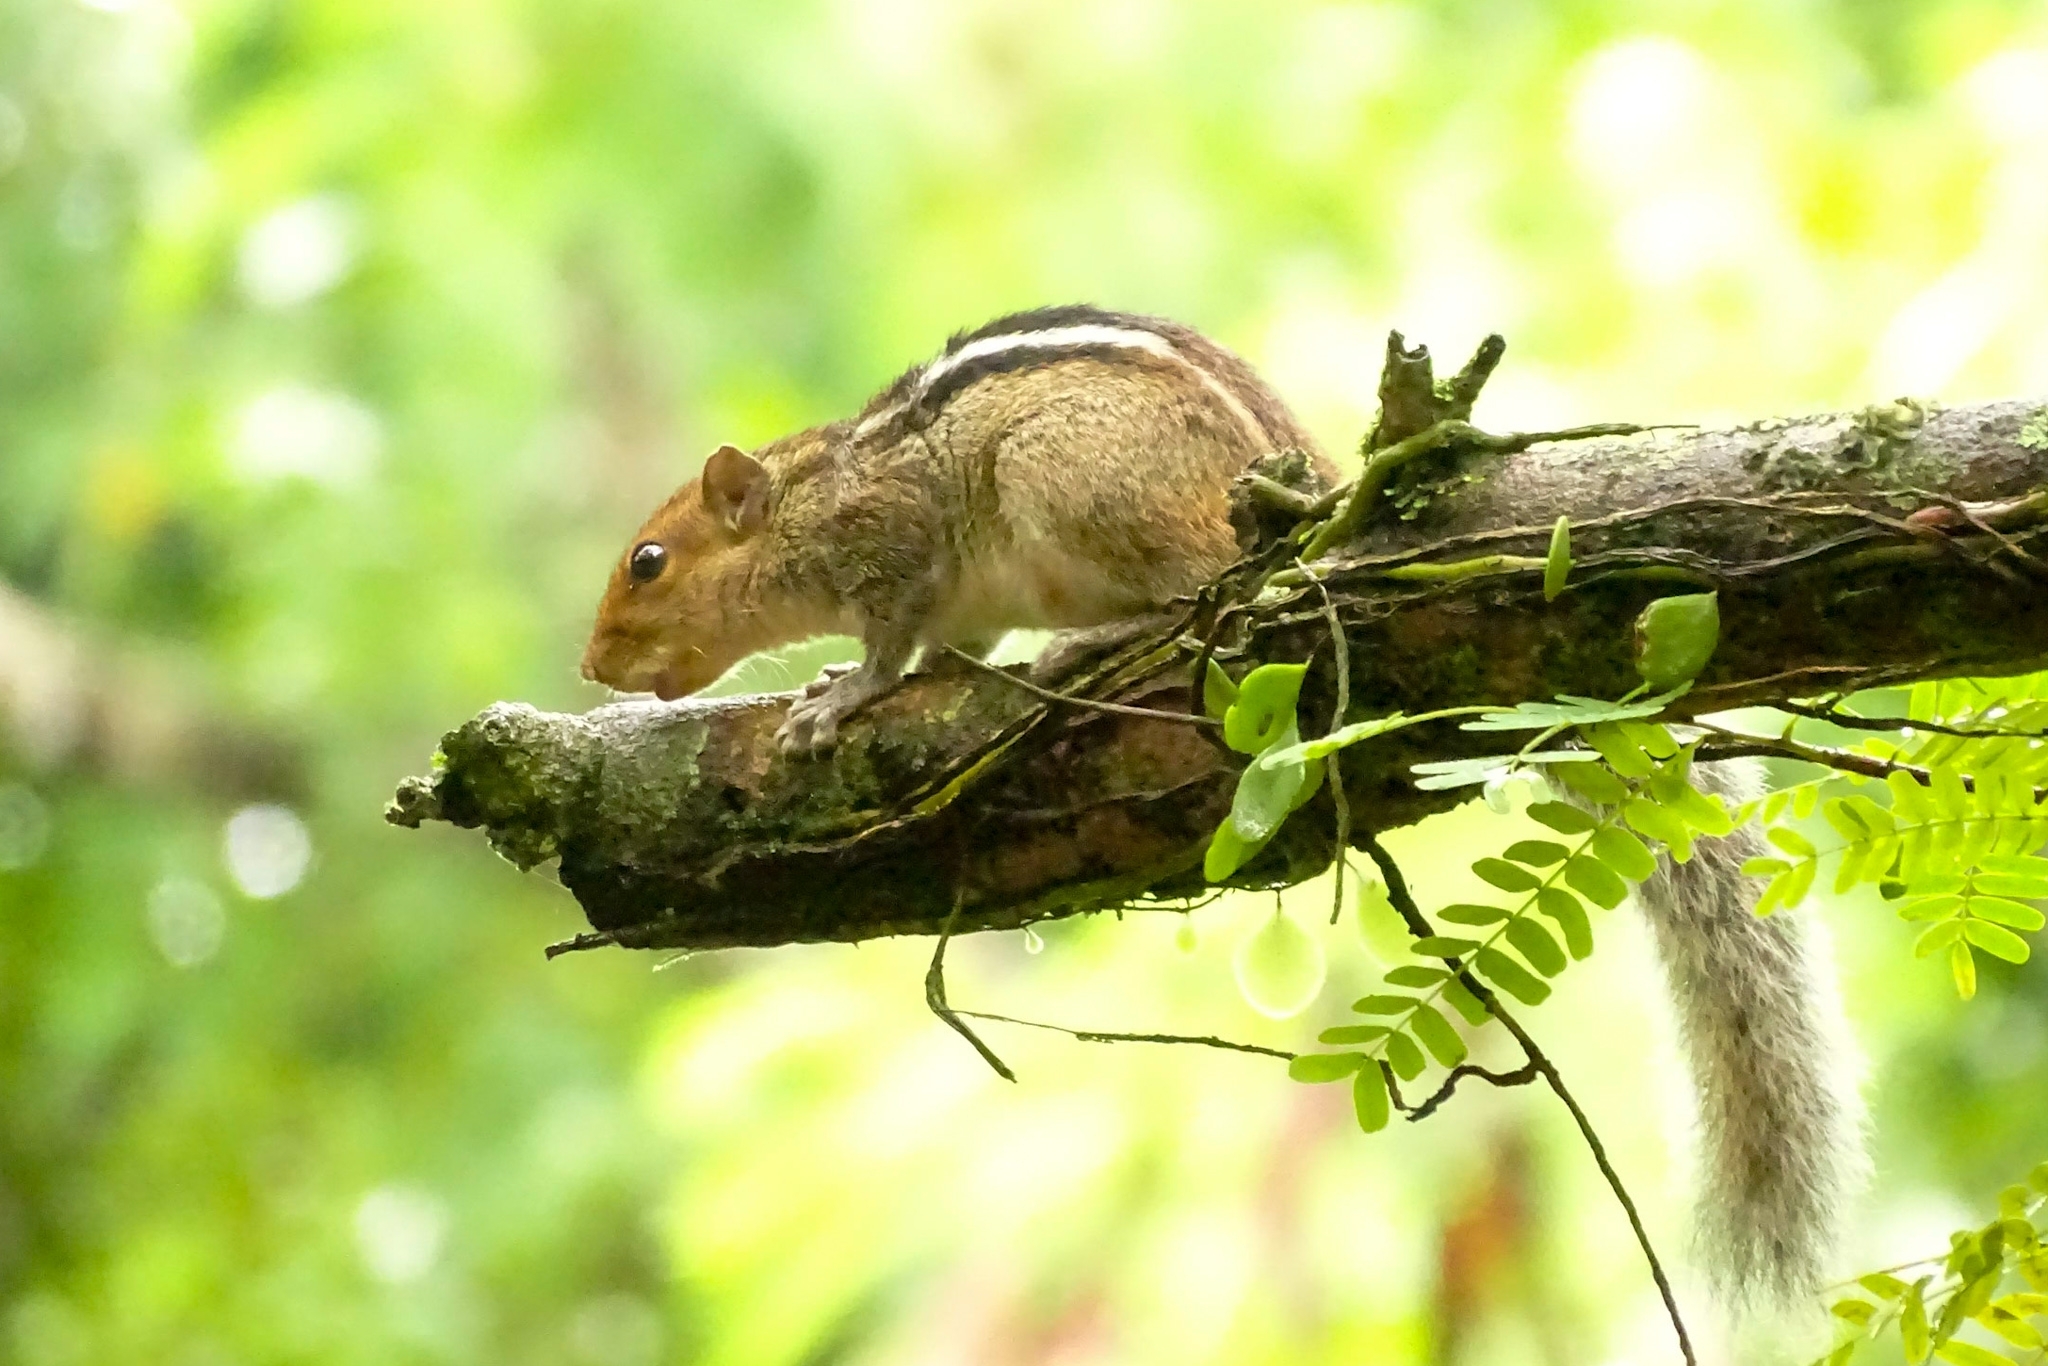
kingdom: Animalia
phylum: Chordata
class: Mammalia
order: Rodentia
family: Sciuridae
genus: Funambulus
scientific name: Funambulus tristriatus
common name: Jungle palm squirrel
